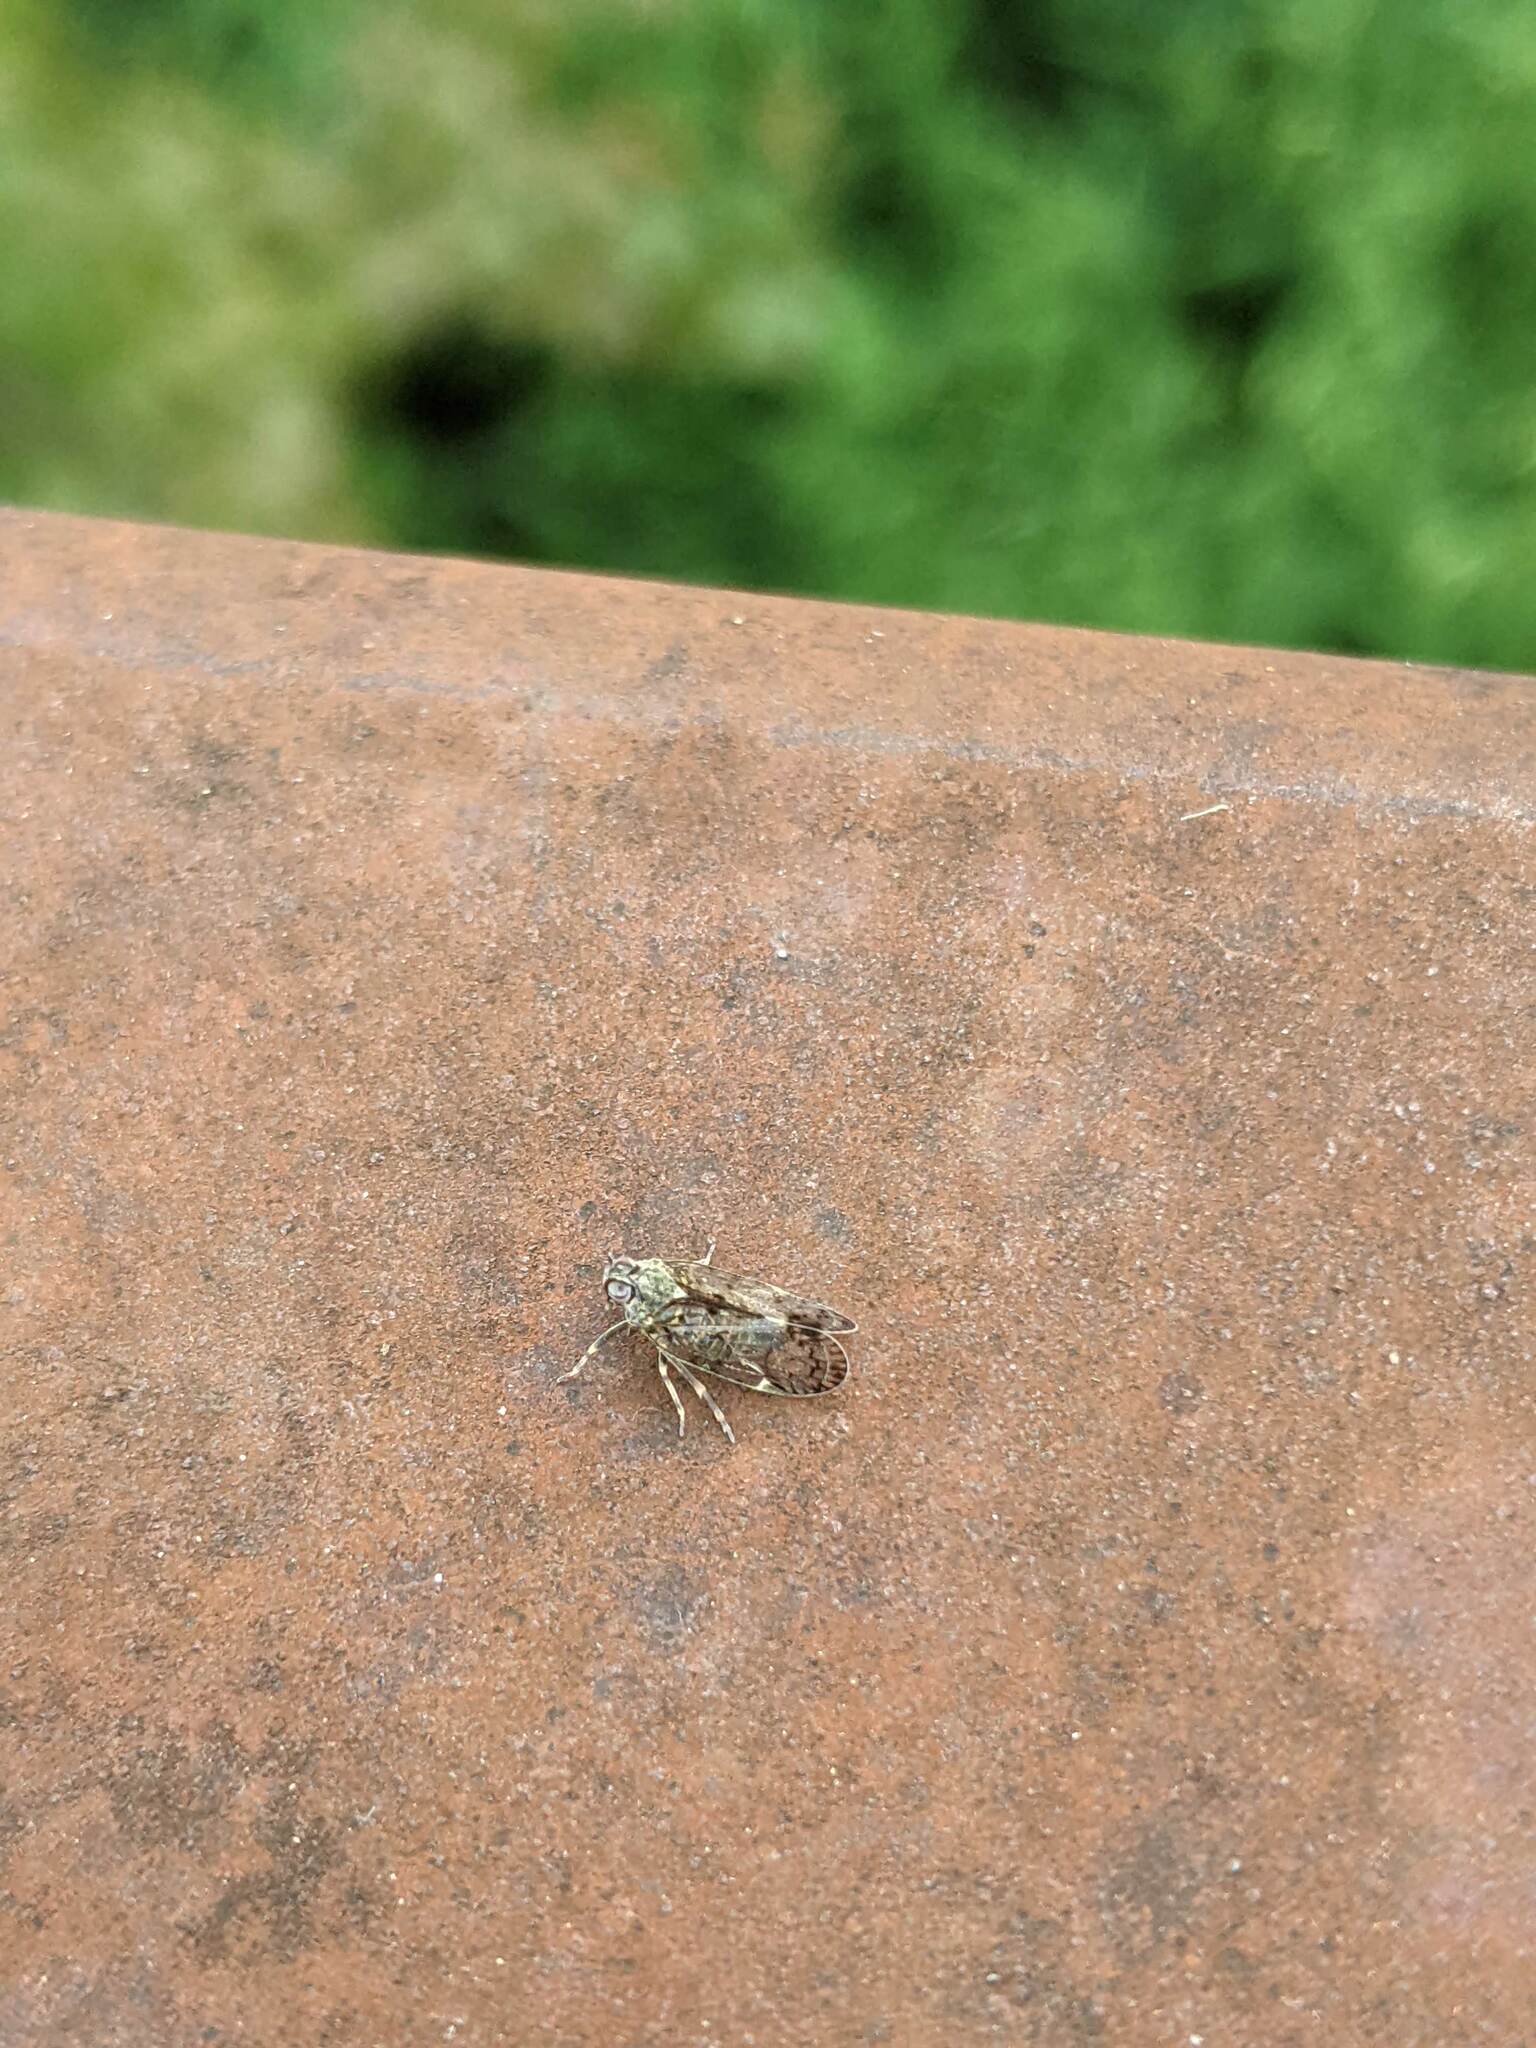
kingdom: Animalia
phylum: Arthropoda
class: Insecta
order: Hemiptera
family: Cixiidae
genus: Melanoliarus
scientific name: Melanoliarus placitus
